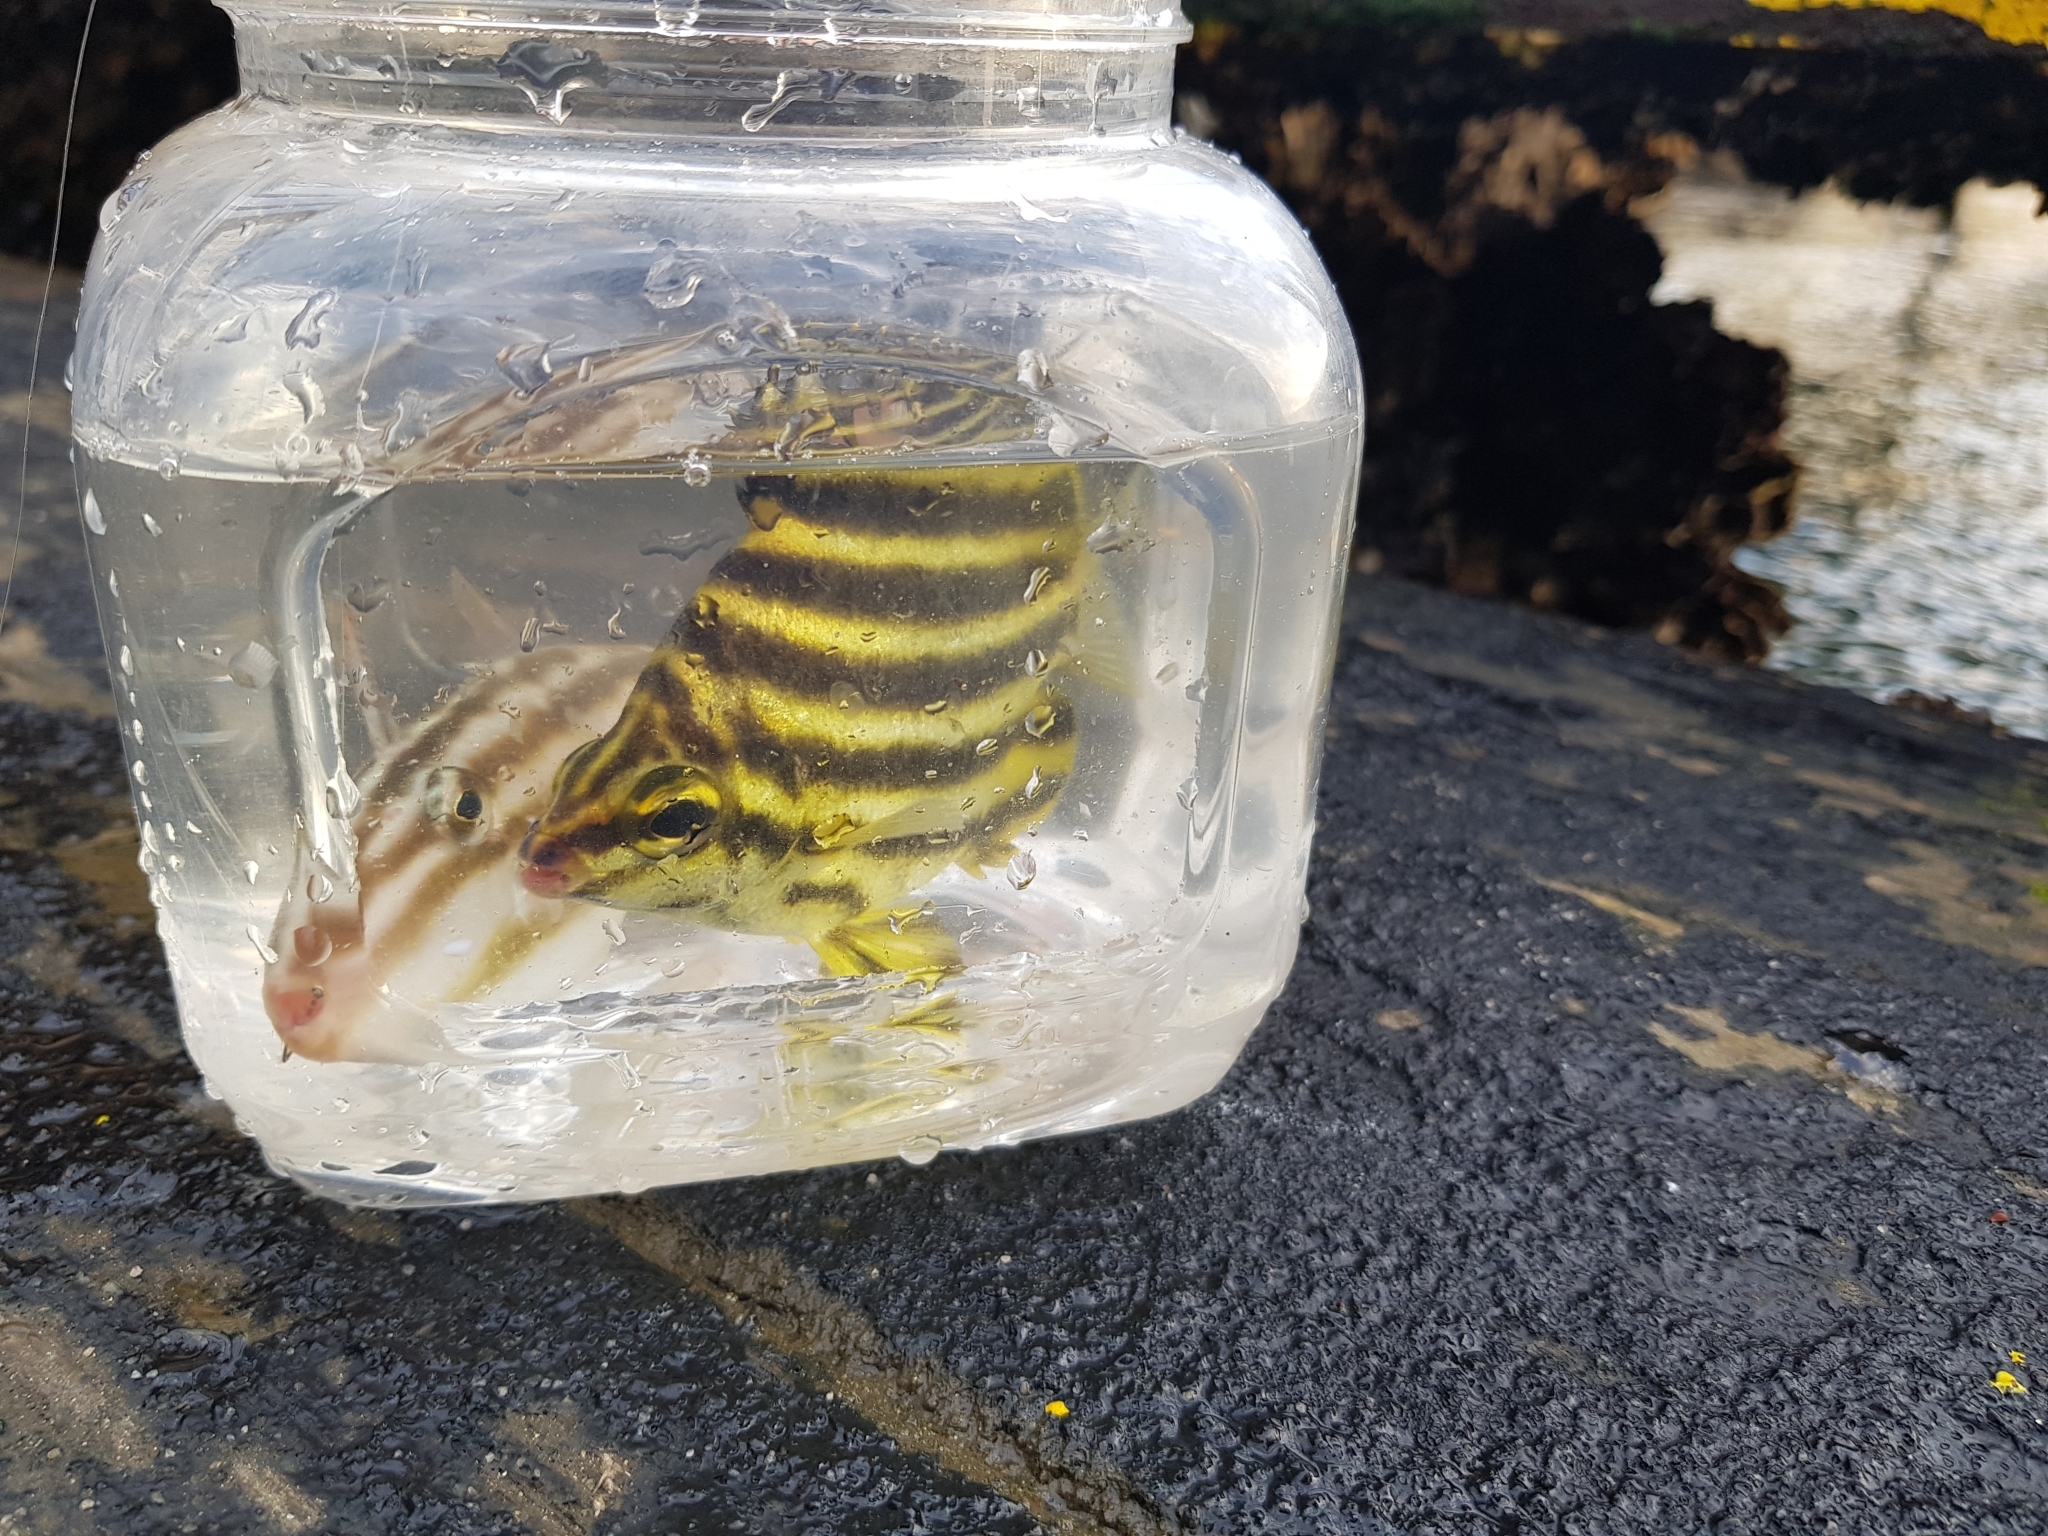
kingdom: Animalia
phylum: Chordata
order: Perciformes
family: Kyphosidae
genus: Microcanthus
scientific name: Microcanthus joyceae
